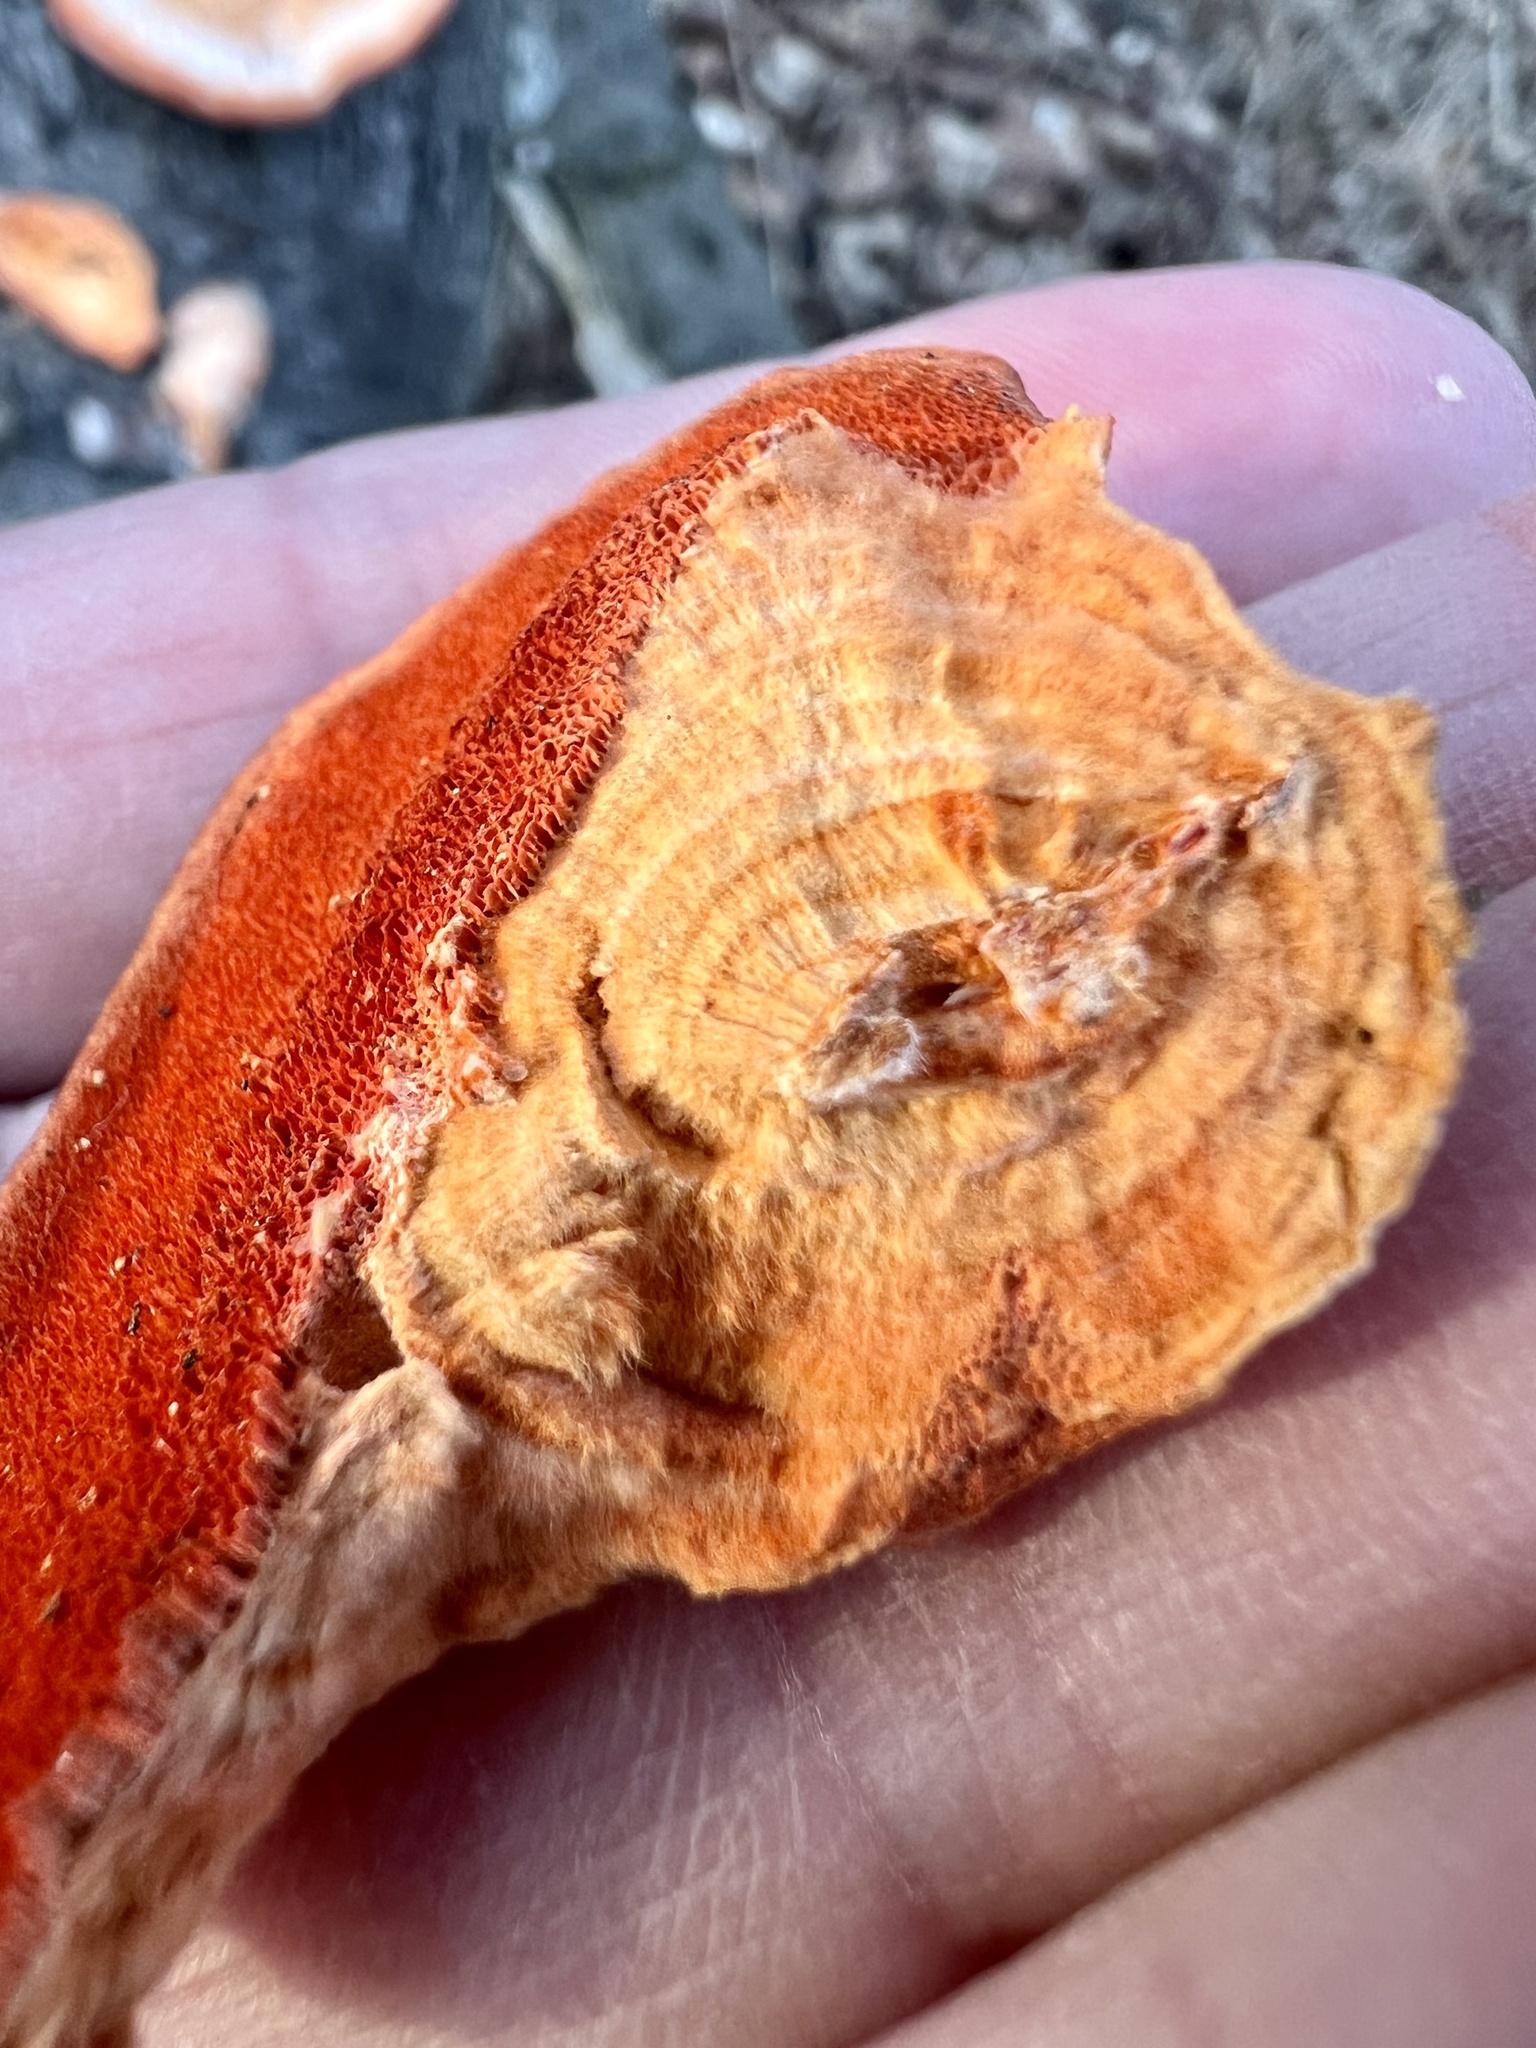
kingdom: Fungi
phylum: Basidiomycota
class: Agaricomycetes
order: Polyporales
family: Polyporaceae
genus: Trametes
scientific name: Trametes cinnabarina
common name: Northern cinnabar polypore
